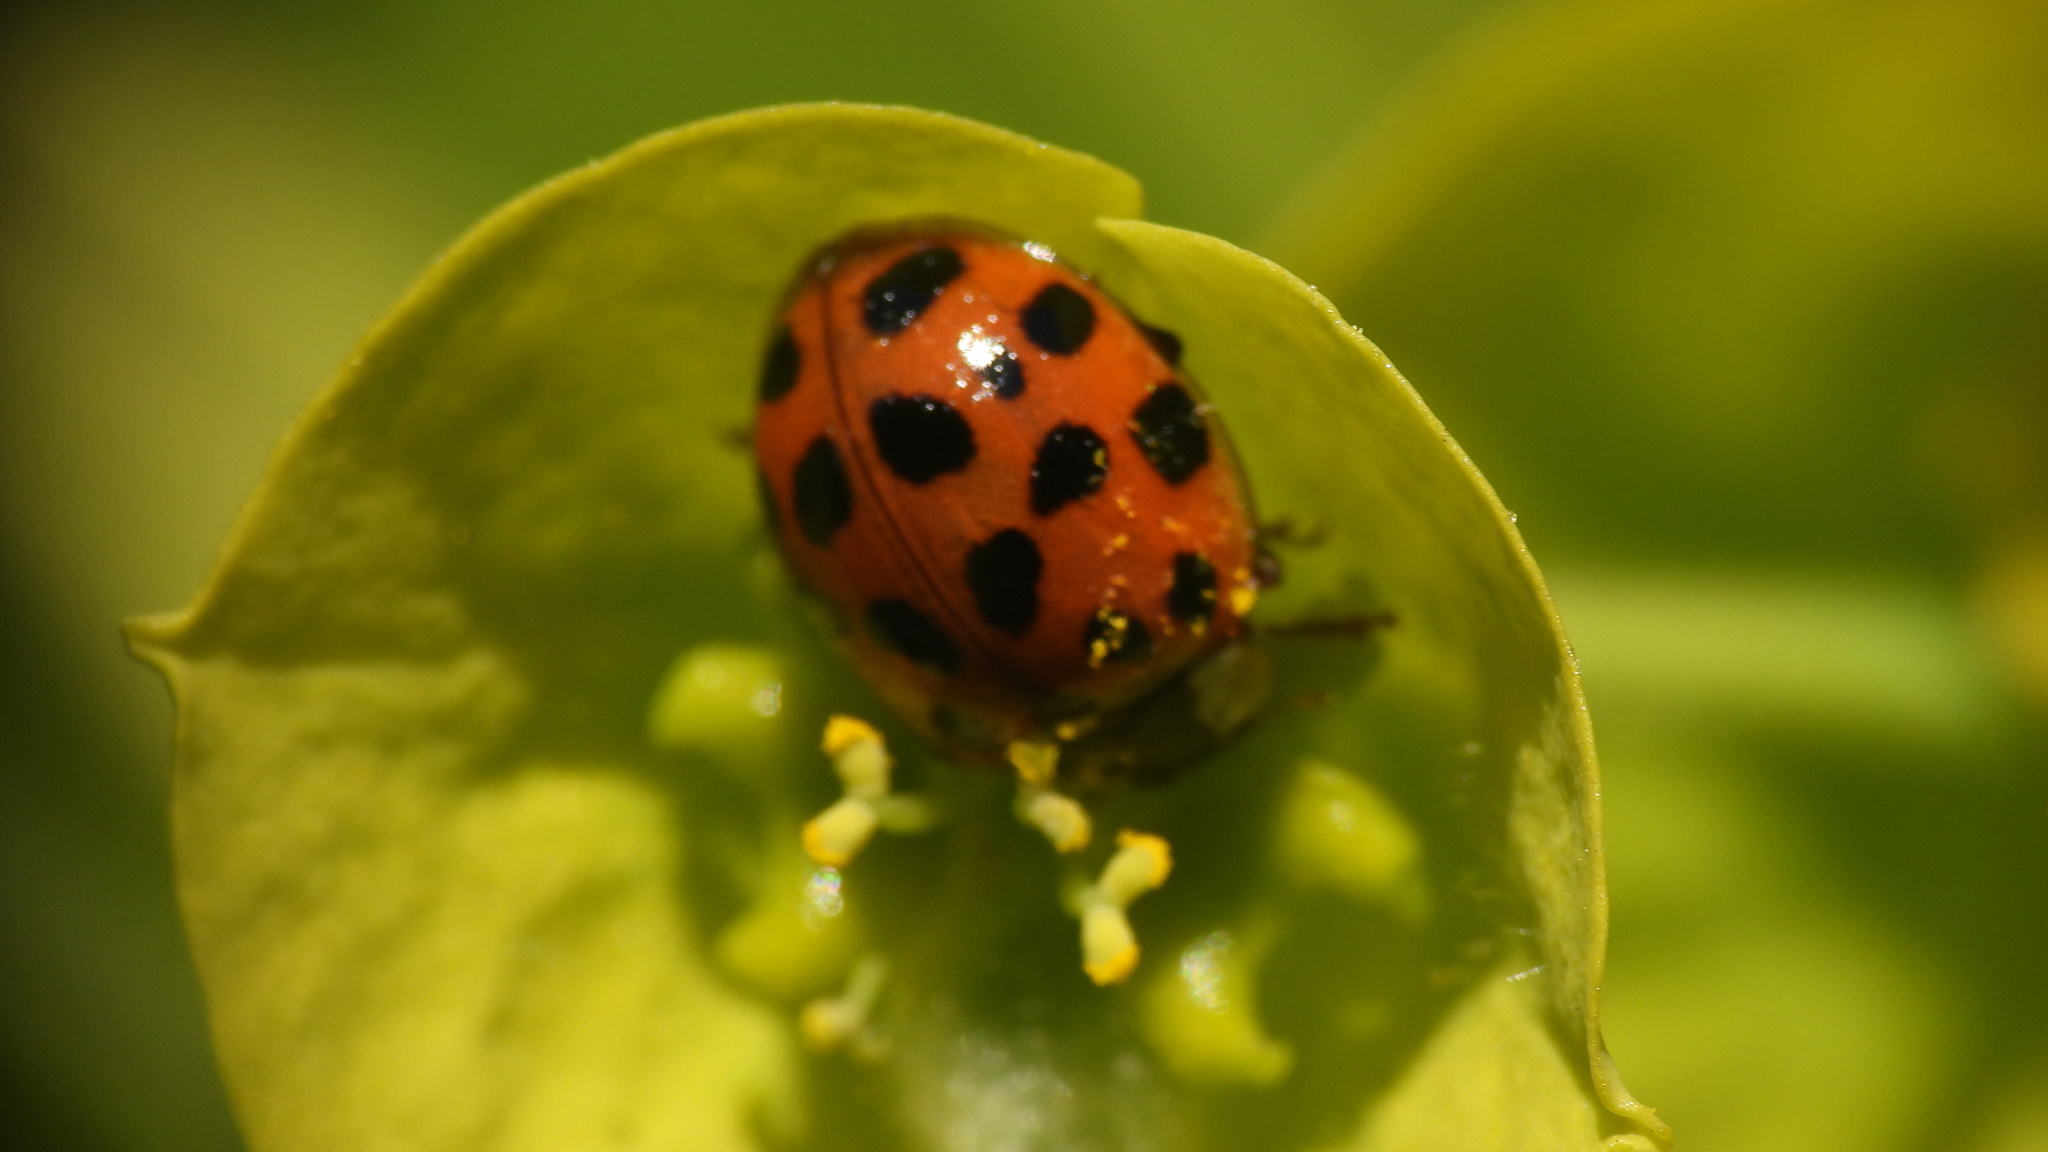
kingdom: Animalia
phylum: Arthropoda
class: Insecta
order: Coleoptera
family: Coccinellidae
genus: Harmonia
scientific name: Harmonia axyridis
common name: Harlequin ladybird
